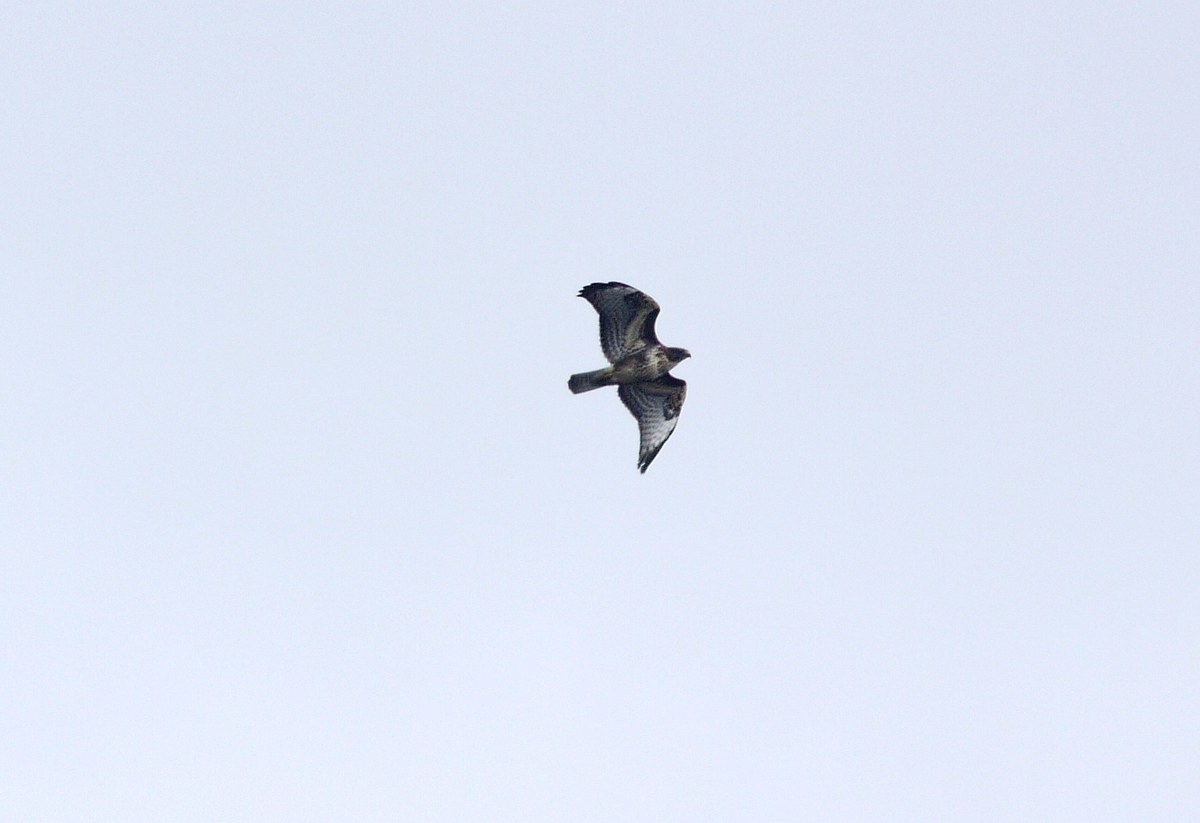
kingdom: Animalia
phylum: Chordata
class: Aves
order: Accipitriformes
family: Accipitridae
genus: Buteo
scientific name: Buteo buteo
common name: Common buzzard
